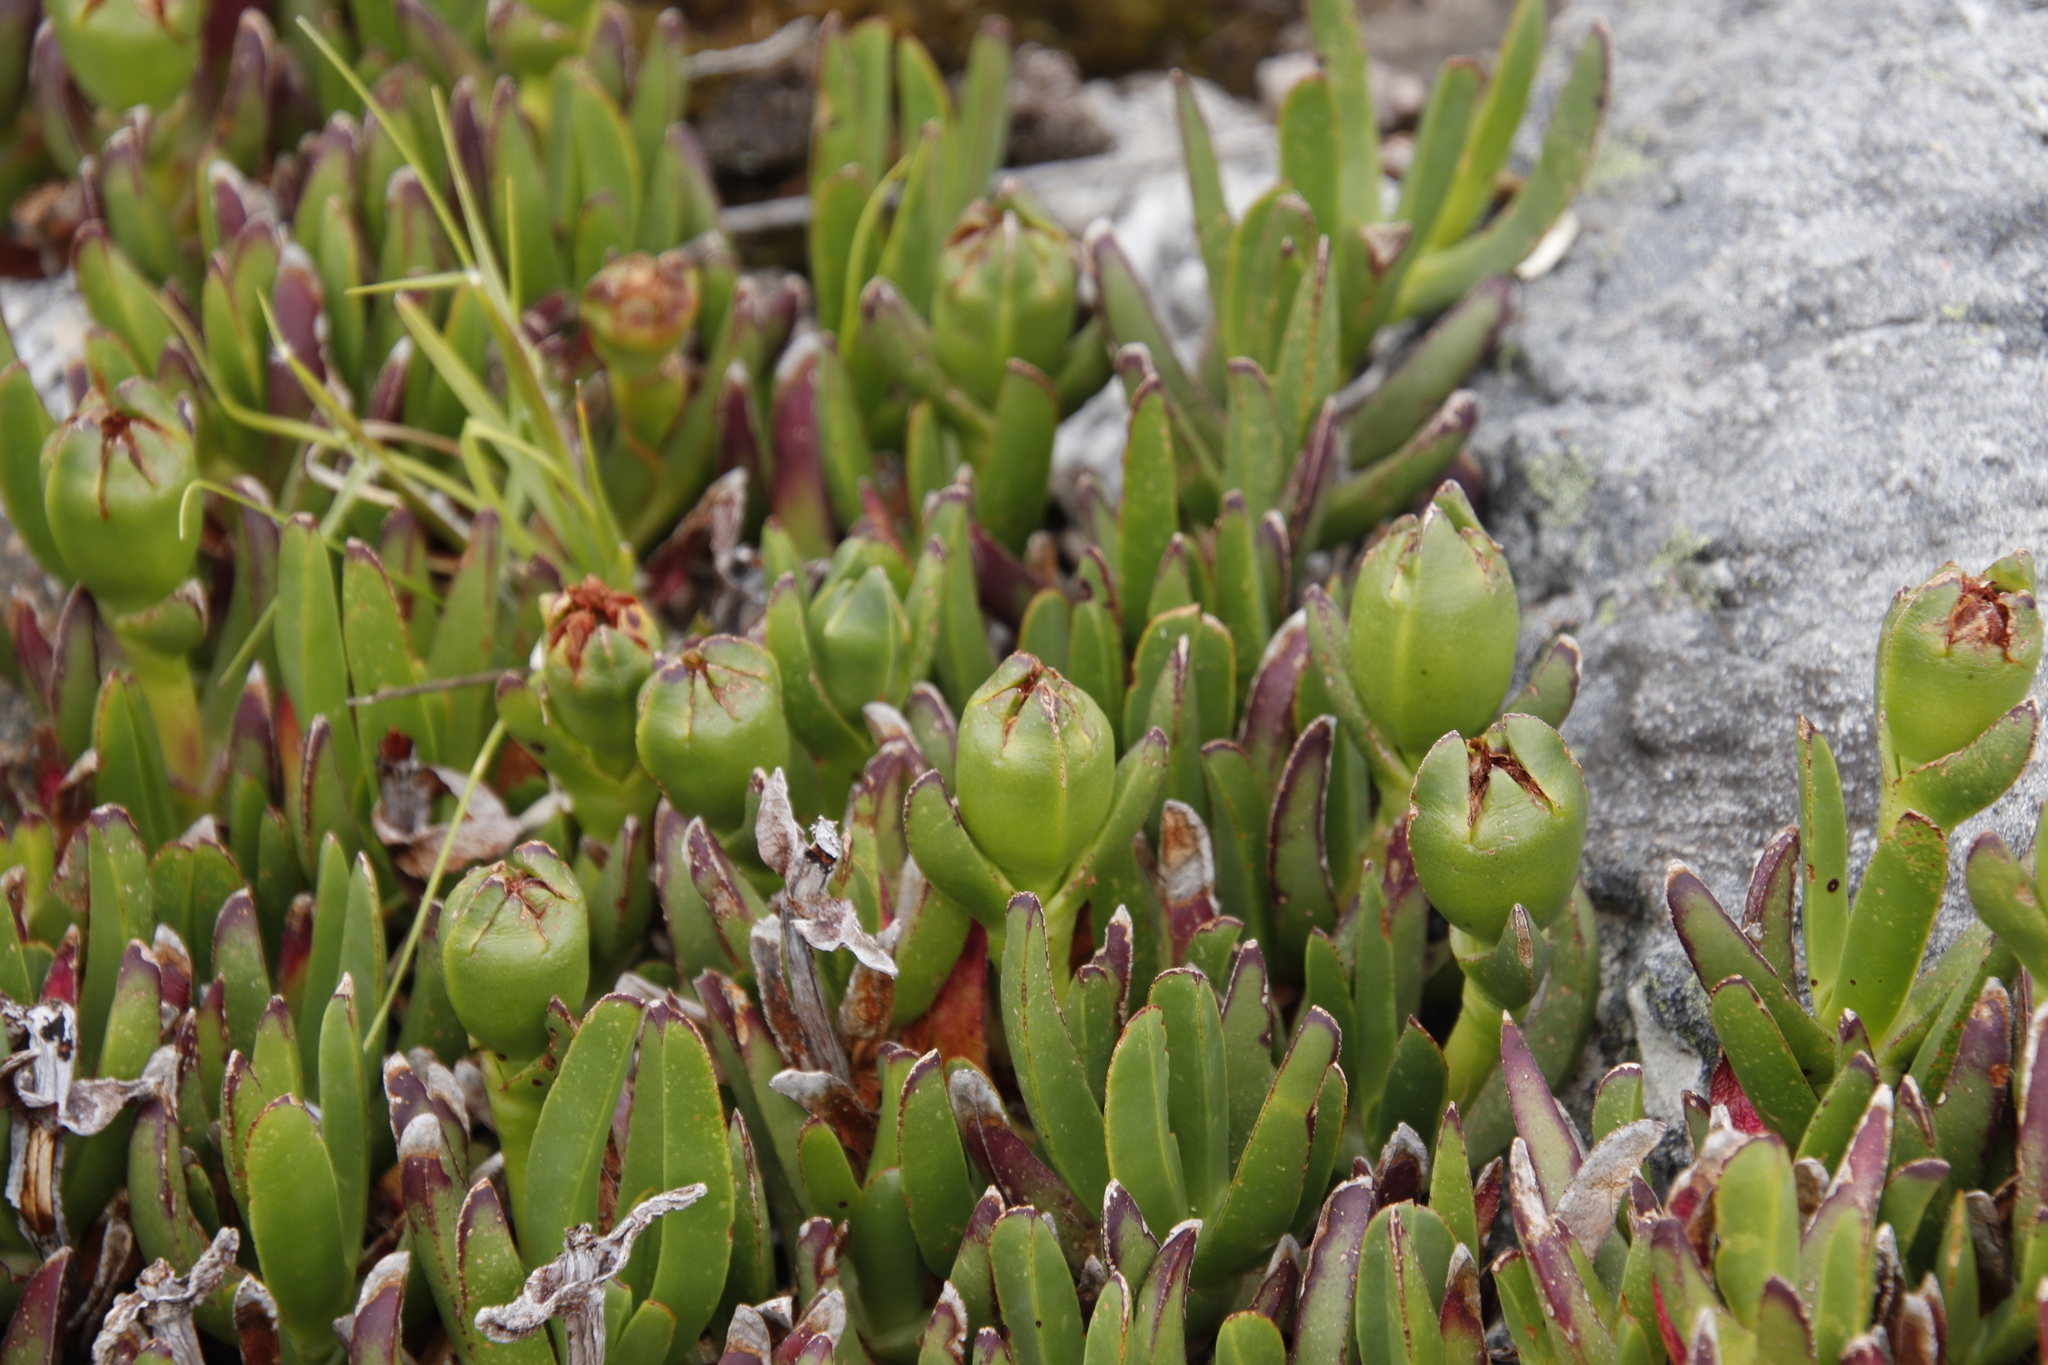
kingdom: Plantae
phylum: Tracheophyta
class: Magnoliopsida
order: Caryophyllales
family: Aizoaceae
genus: Carpobrotus
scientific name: Carpobrotus edulis
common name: Hottentot-fig
